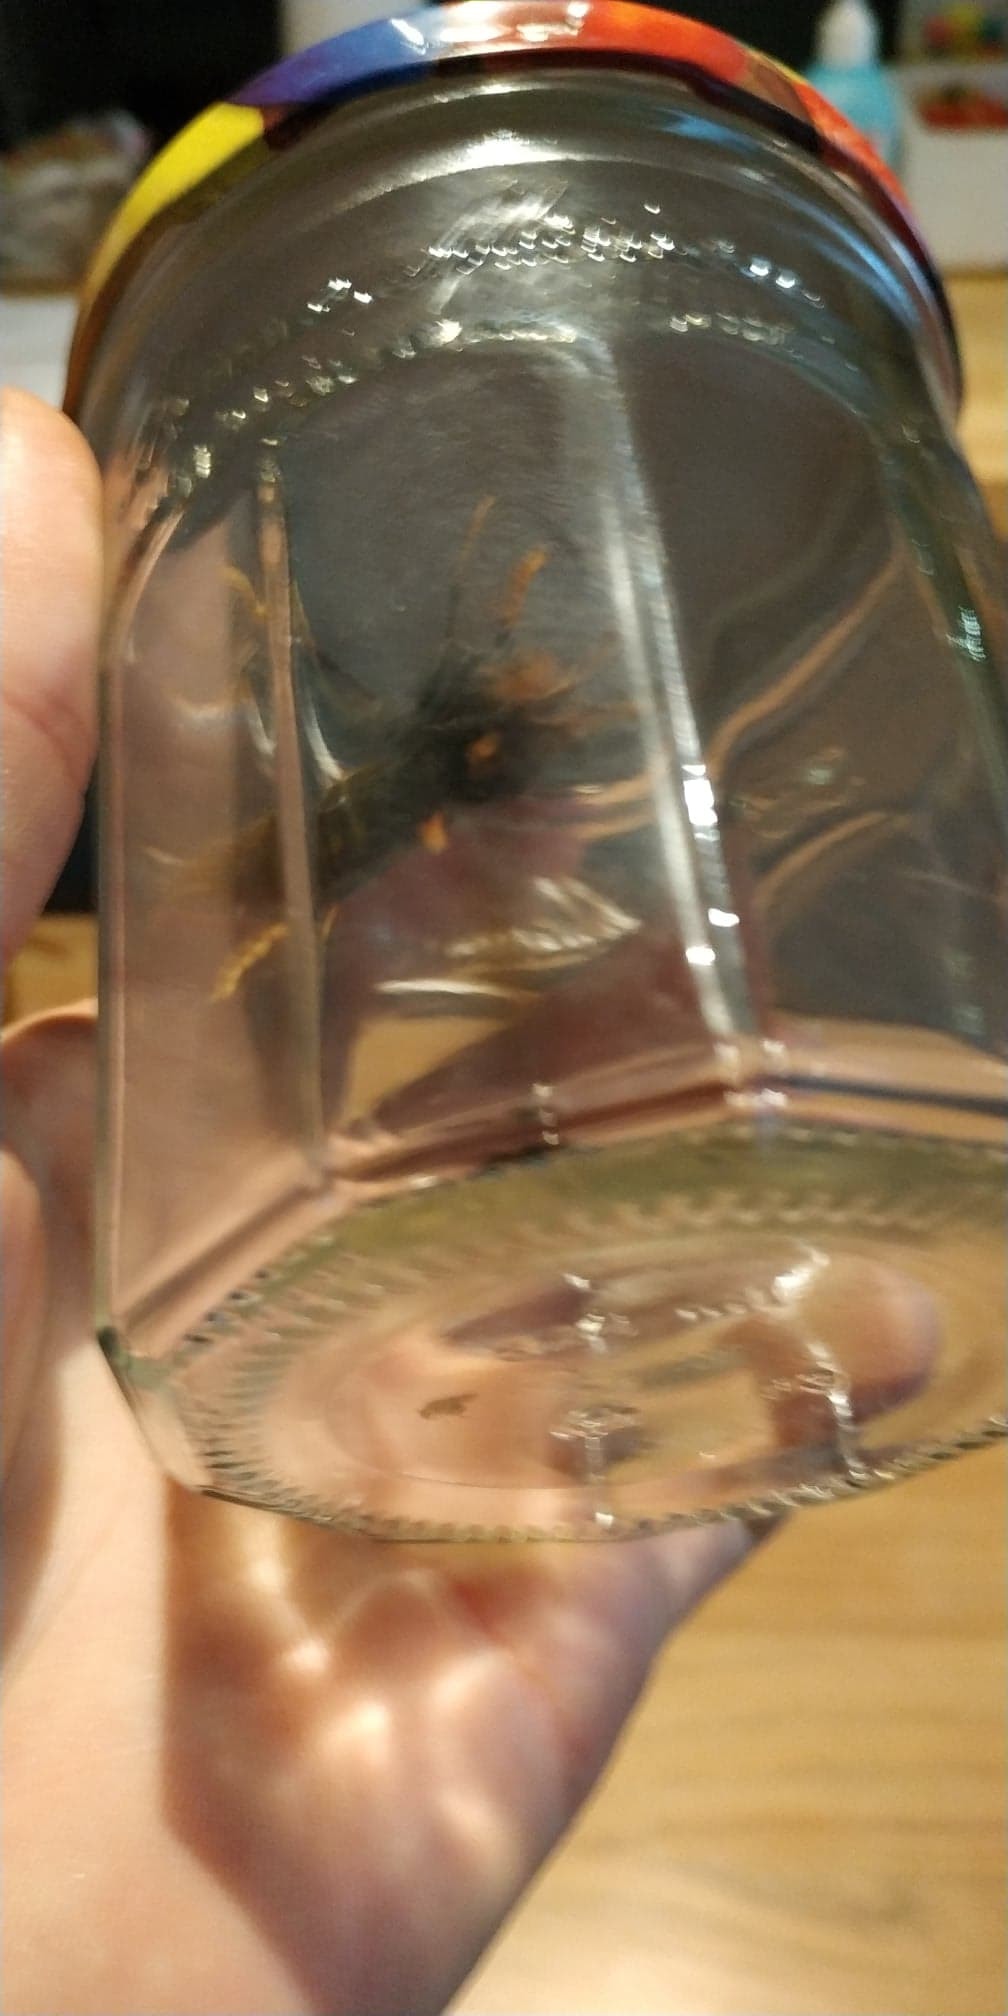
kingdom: Animalia
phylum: Arthropoda
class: Insecta
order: Hymenoptera
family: Vespidae
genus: Vespa
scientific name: Vespa velutina
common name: Asian hornet
